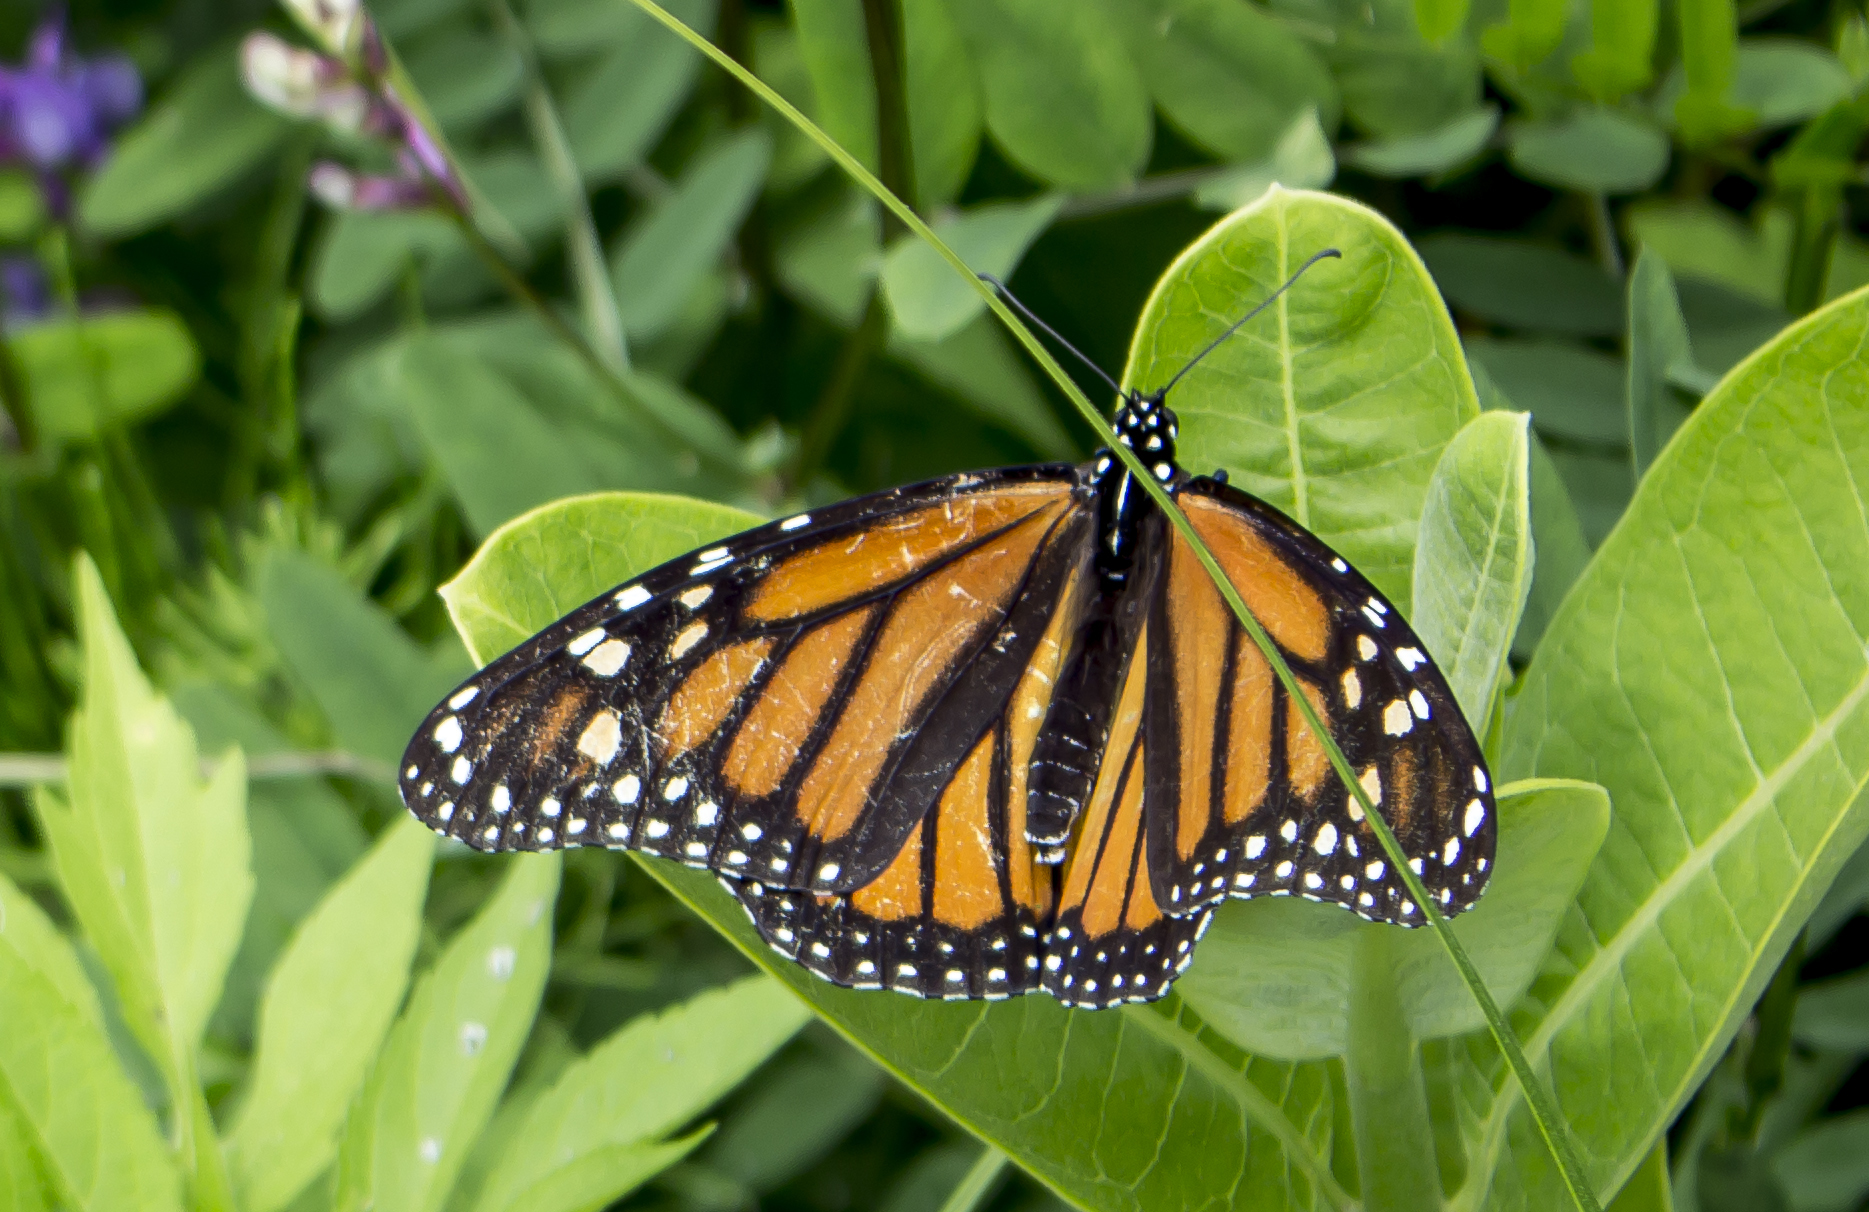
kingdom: Animalia
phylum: Arthropoda
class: Insecta
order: Lepidoptera
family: Nymphalidae
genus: Danaus
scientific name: Danaus plexippus
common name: Monarch
